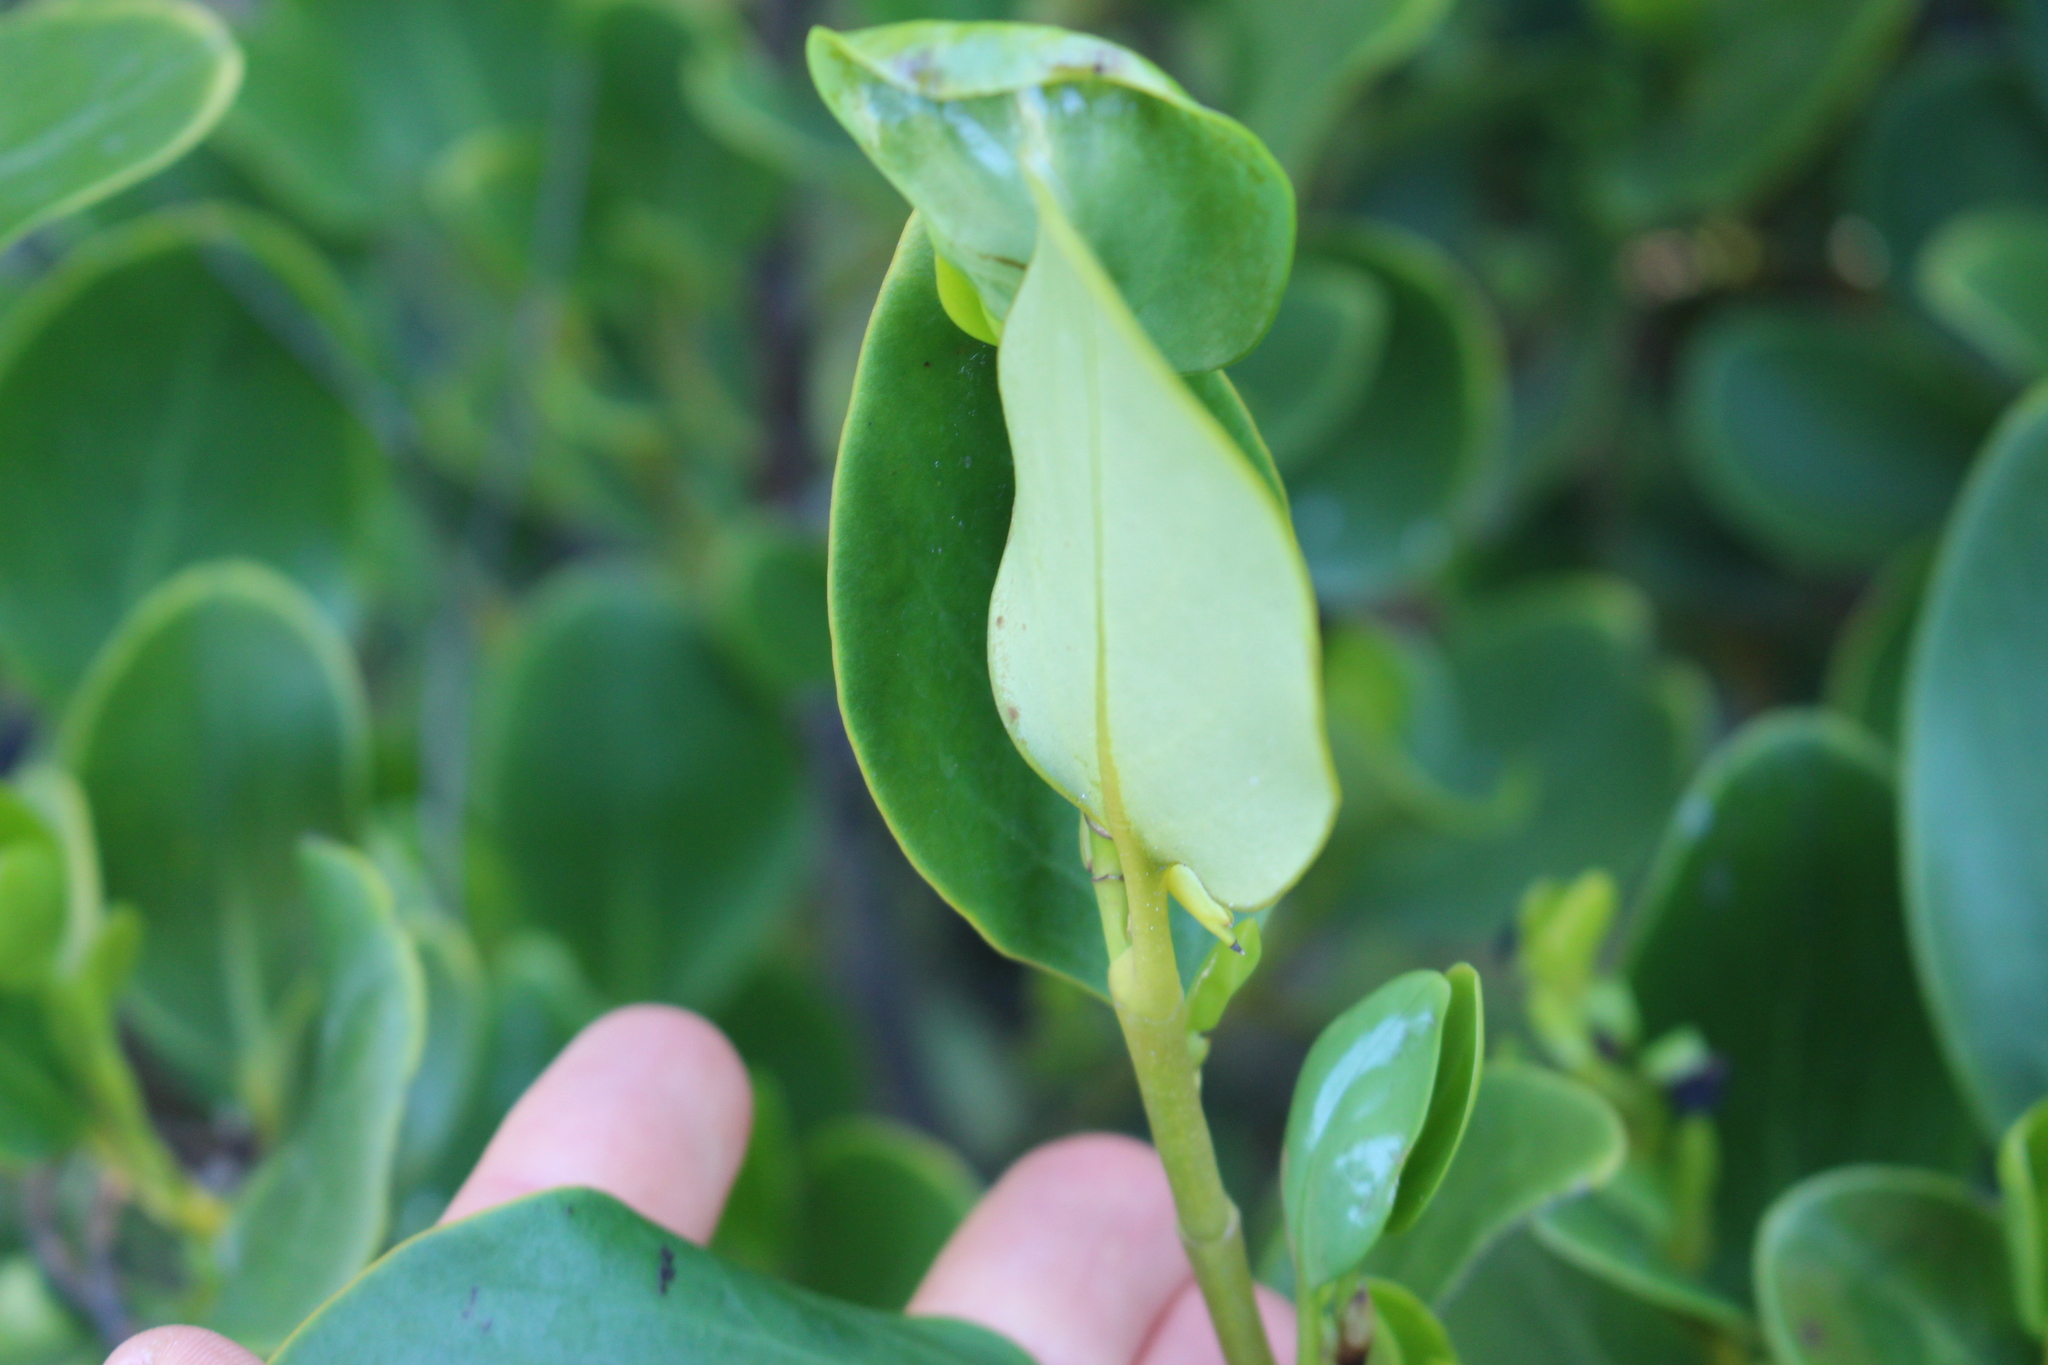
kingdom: Plantae
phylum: Tracheophyta
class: Magnoliopsida
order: Apiales
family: Griseliniaceae
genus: Griselinia
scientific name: Griselinia littoralis
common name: New zealand broadleaf
